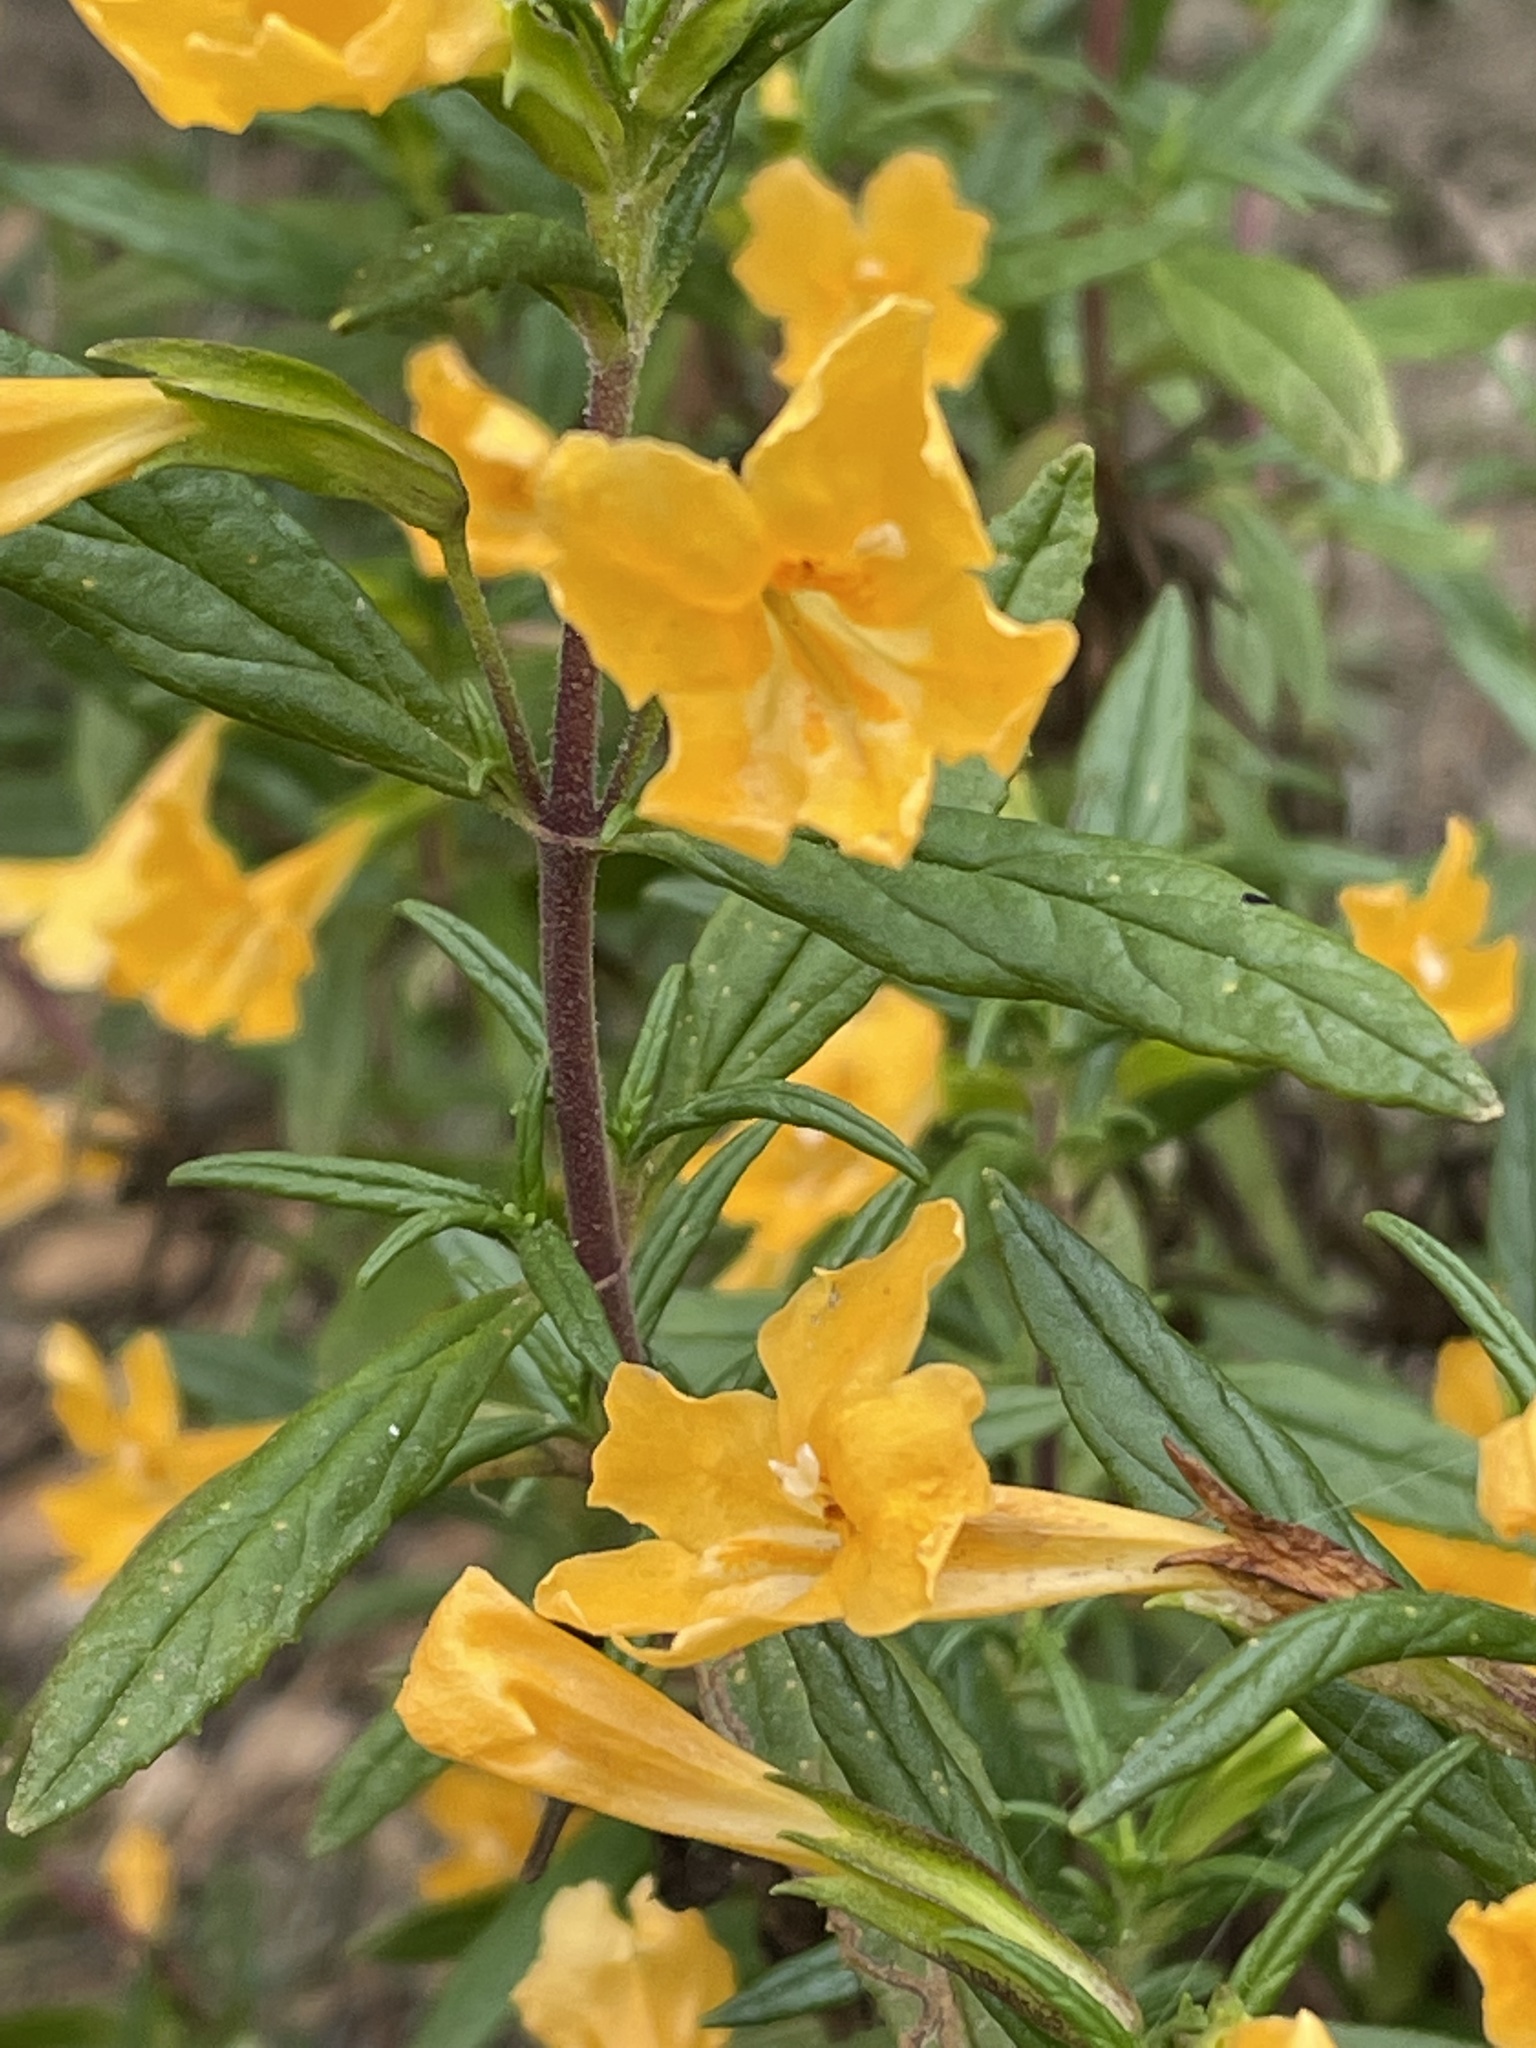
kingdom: Plantae
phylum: Tracheophyta
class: Magnoliopsida
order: Lamiales
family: Phrymaceae
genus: Diplacus
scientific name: Diplacus aurantiacus
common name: Bush monkey-flower
